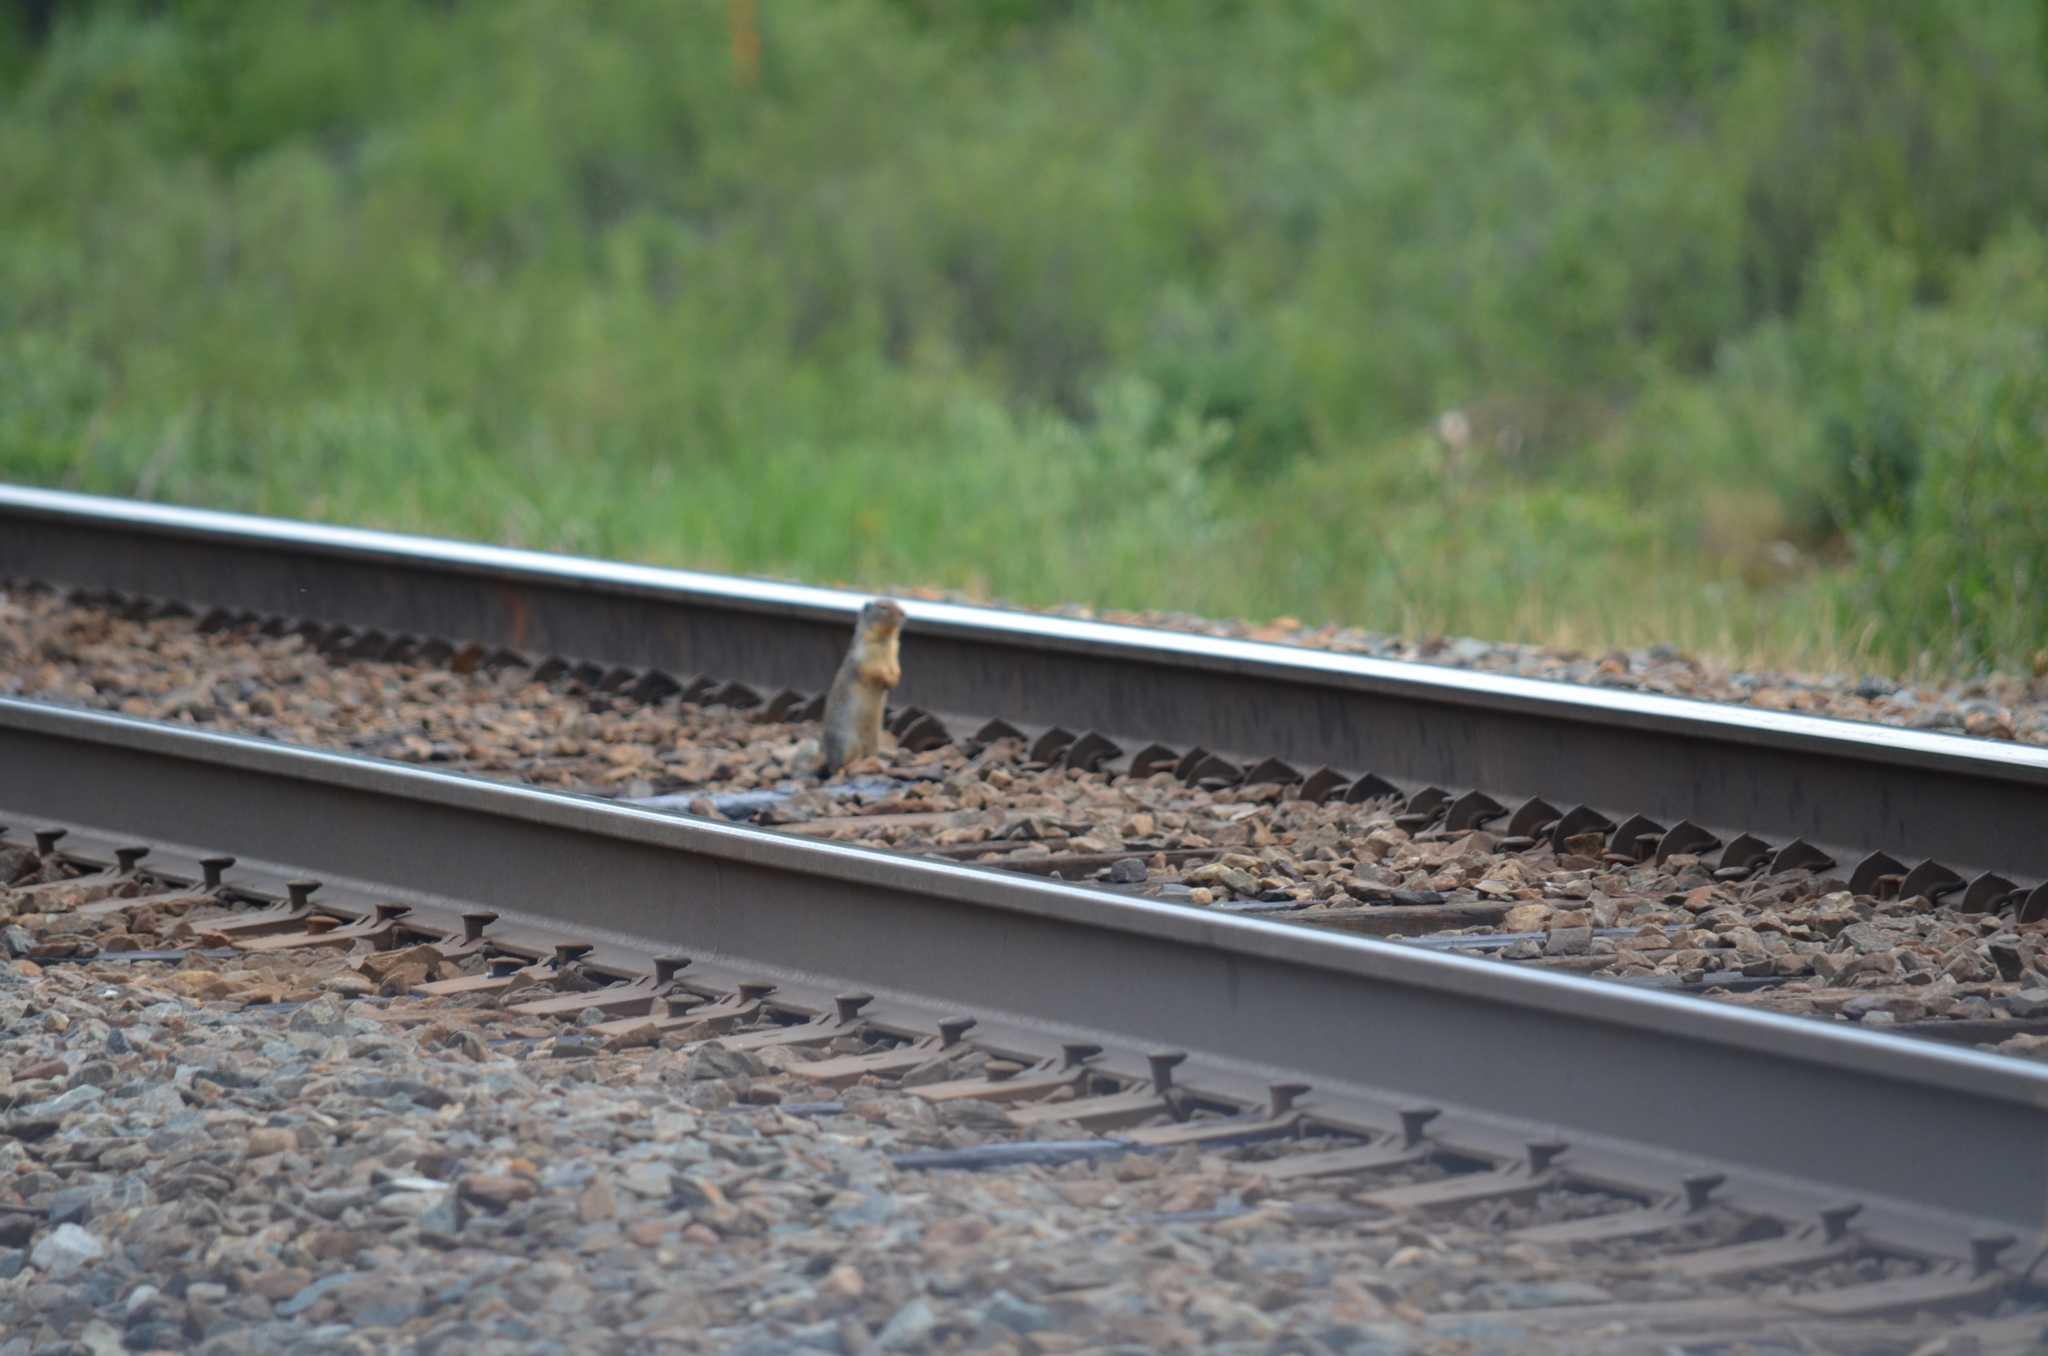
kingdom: Animalia
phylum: Chordata
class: Mammalia
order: Rodentia
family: Sciuridae
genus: Urocitellus
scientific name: Urocitellus columbianus
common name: Columbian ground squirrel
